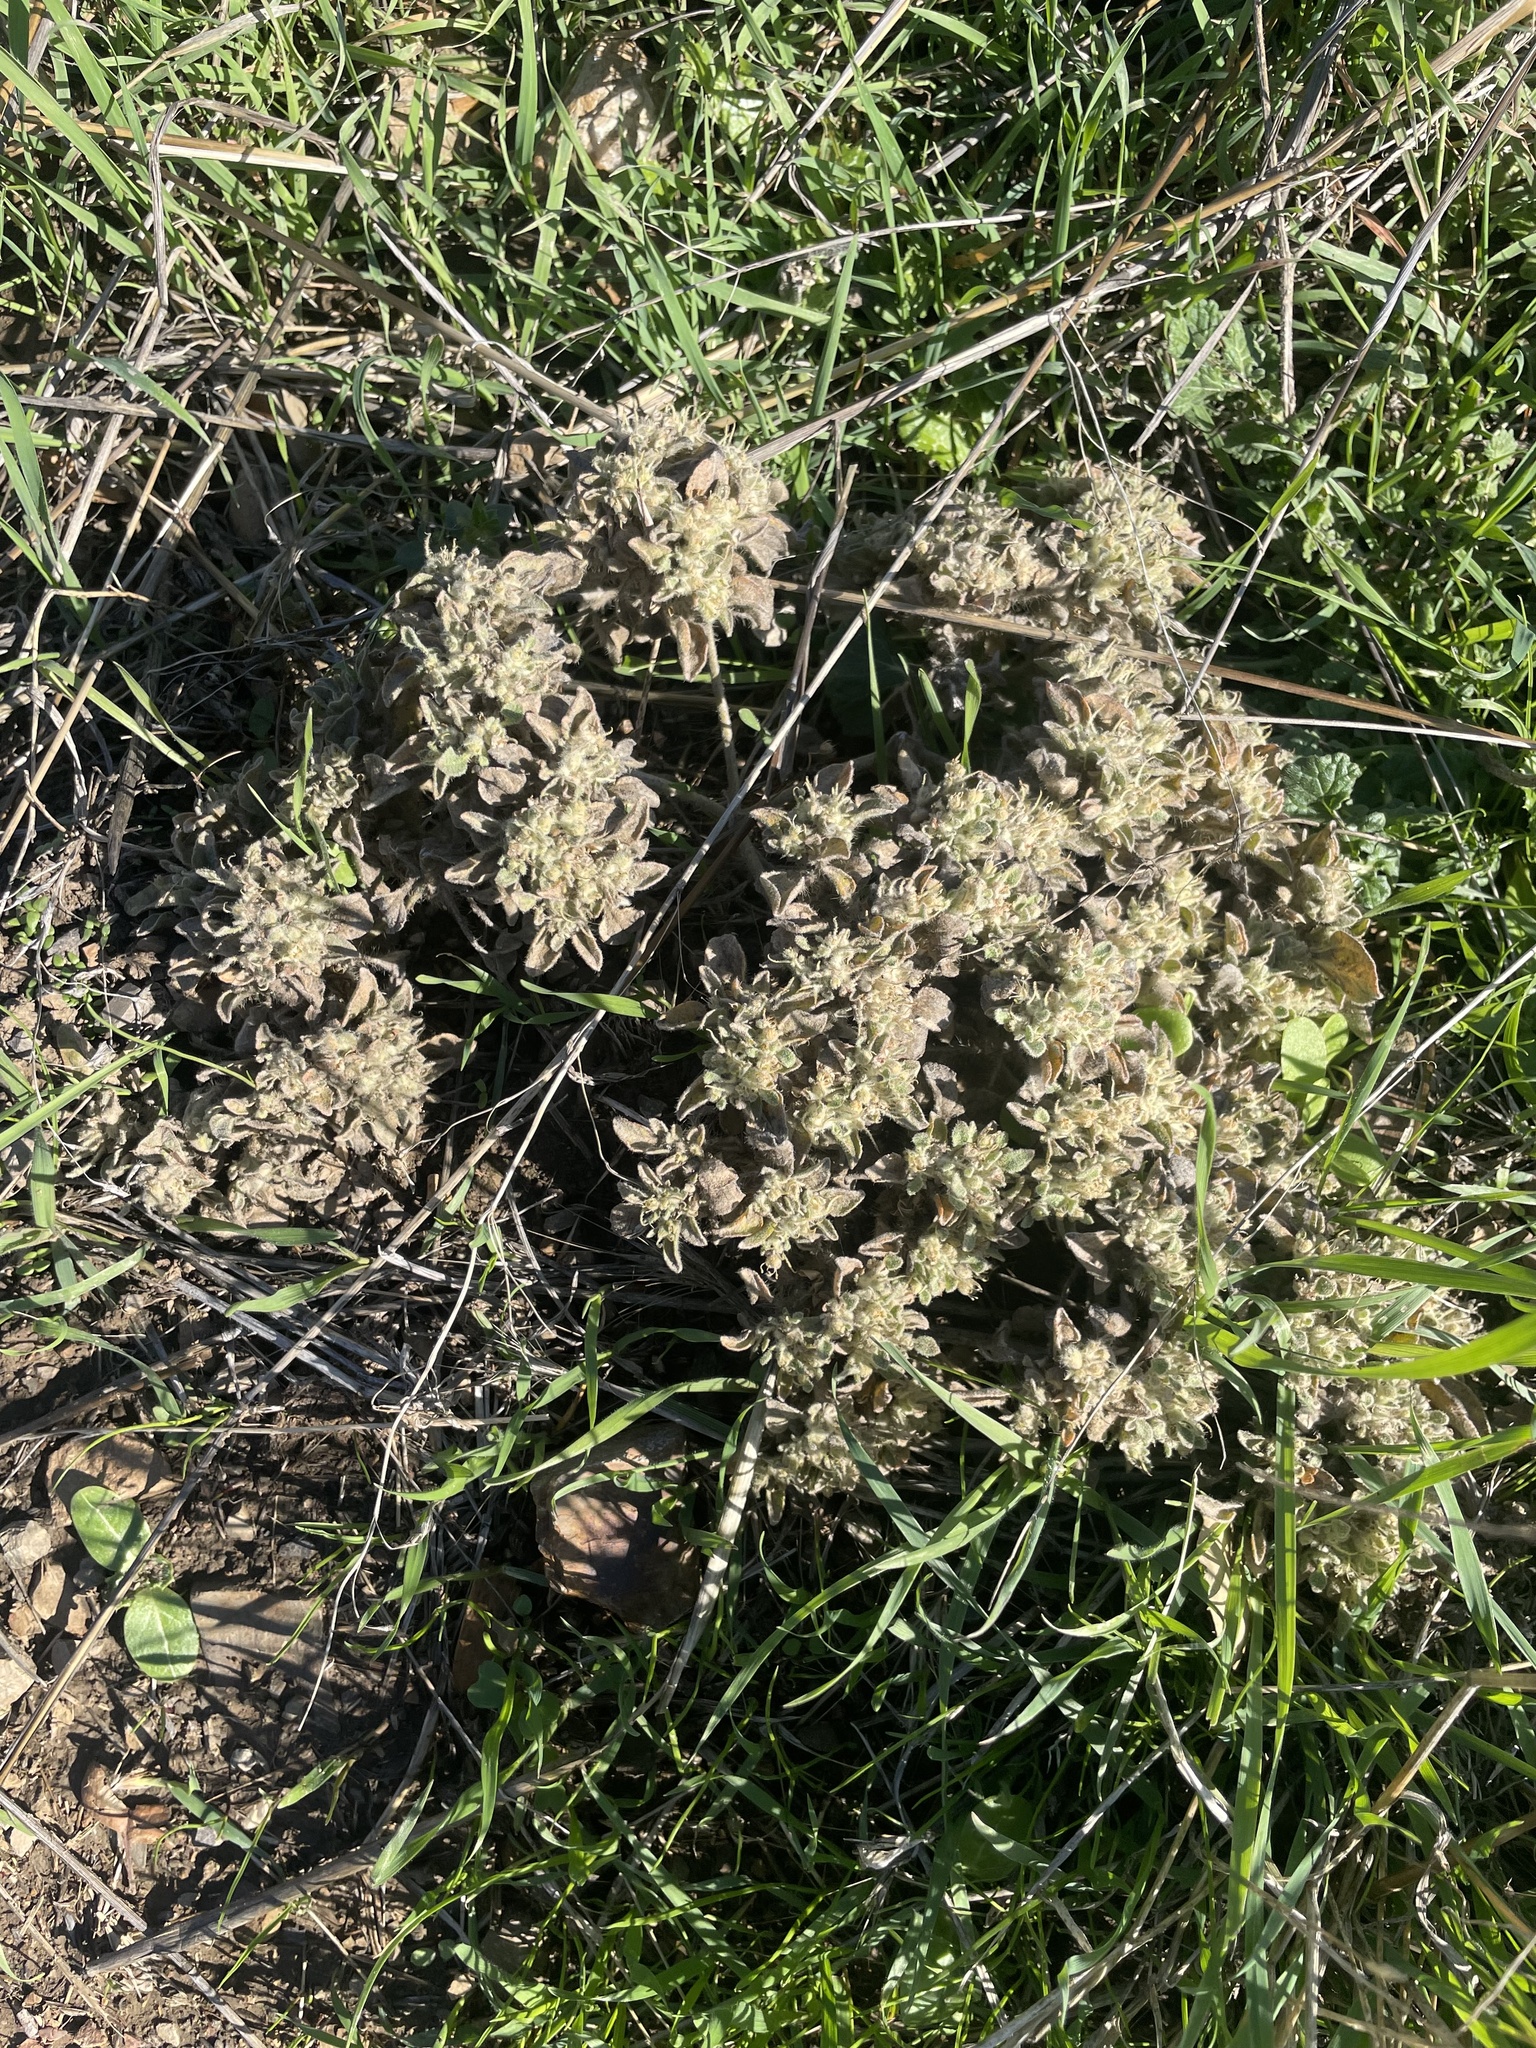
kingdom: Plantae
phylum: Tracheophyta
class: Magnoliopsida
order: Malpighiales
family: Euphorbiaceae
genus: Croton
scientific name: Croton setiger
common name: Dove weed
